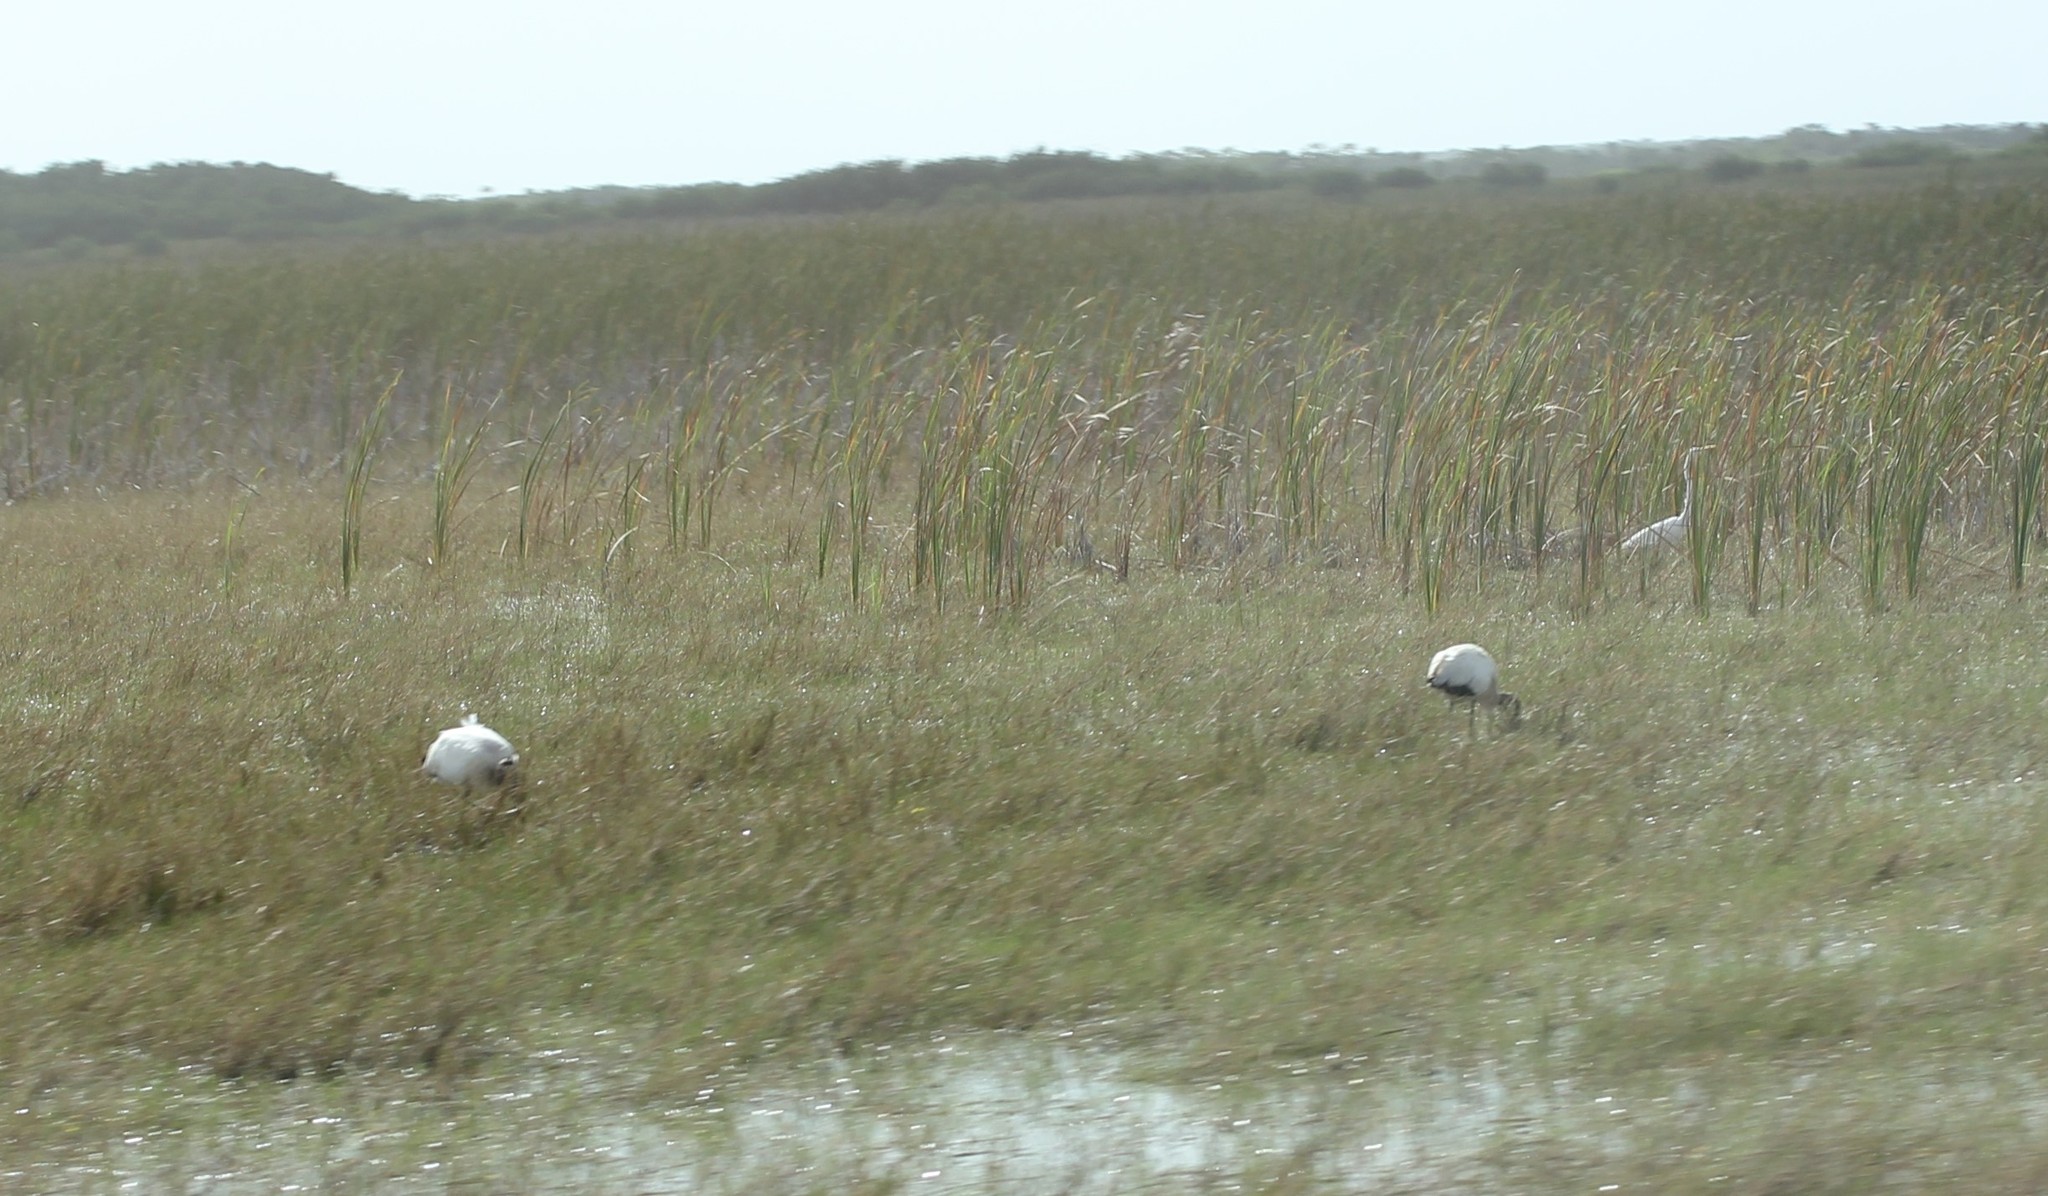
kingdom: Animalia
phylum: Chordata
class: Aves
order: Ciconiiformes
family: Ciconiidae
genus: Mycteria
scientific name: Mycteria americana
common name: Wood stork
